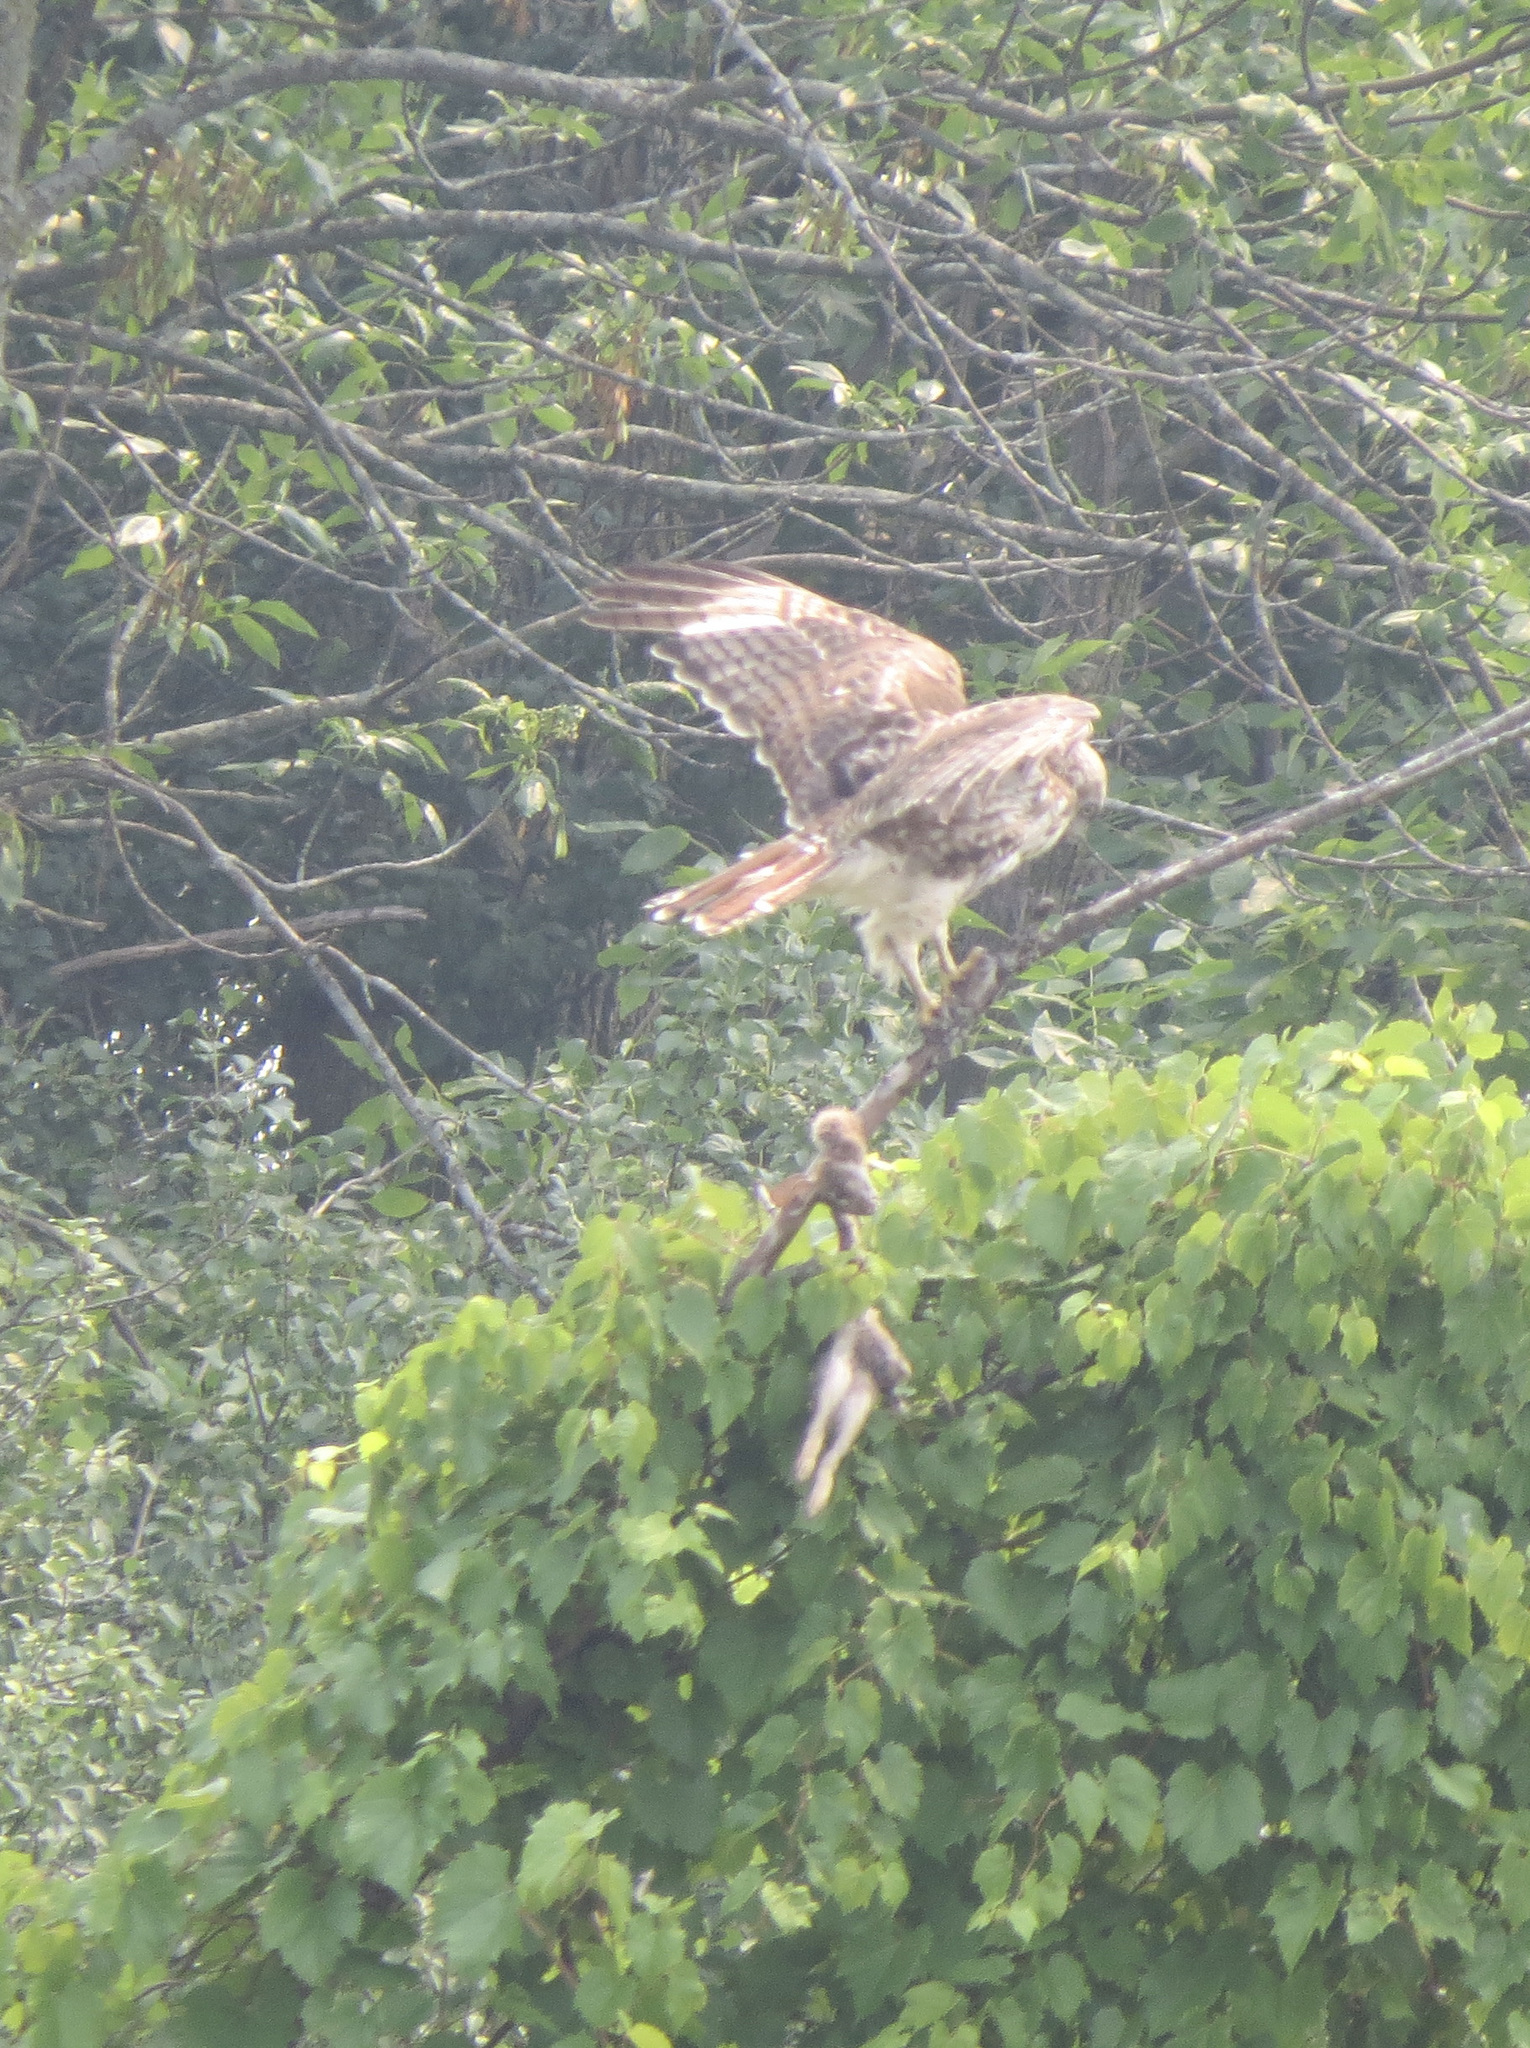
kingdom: Animalia
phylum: Chordata
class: Aves
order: Accipitriformes
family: Accipitridae
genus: Buteo
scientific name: Buteo jamaicensis
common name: Red-tailed hawk
